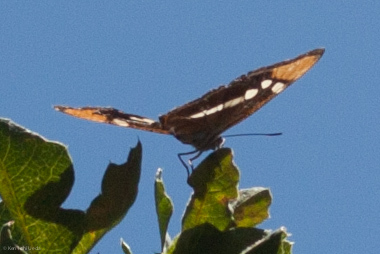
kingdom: Animalia
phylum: Arthropoda
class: Insecta
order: Lepidoptera
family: Nymphalidae
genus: Limenitis
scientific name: Limenitis bredowii
